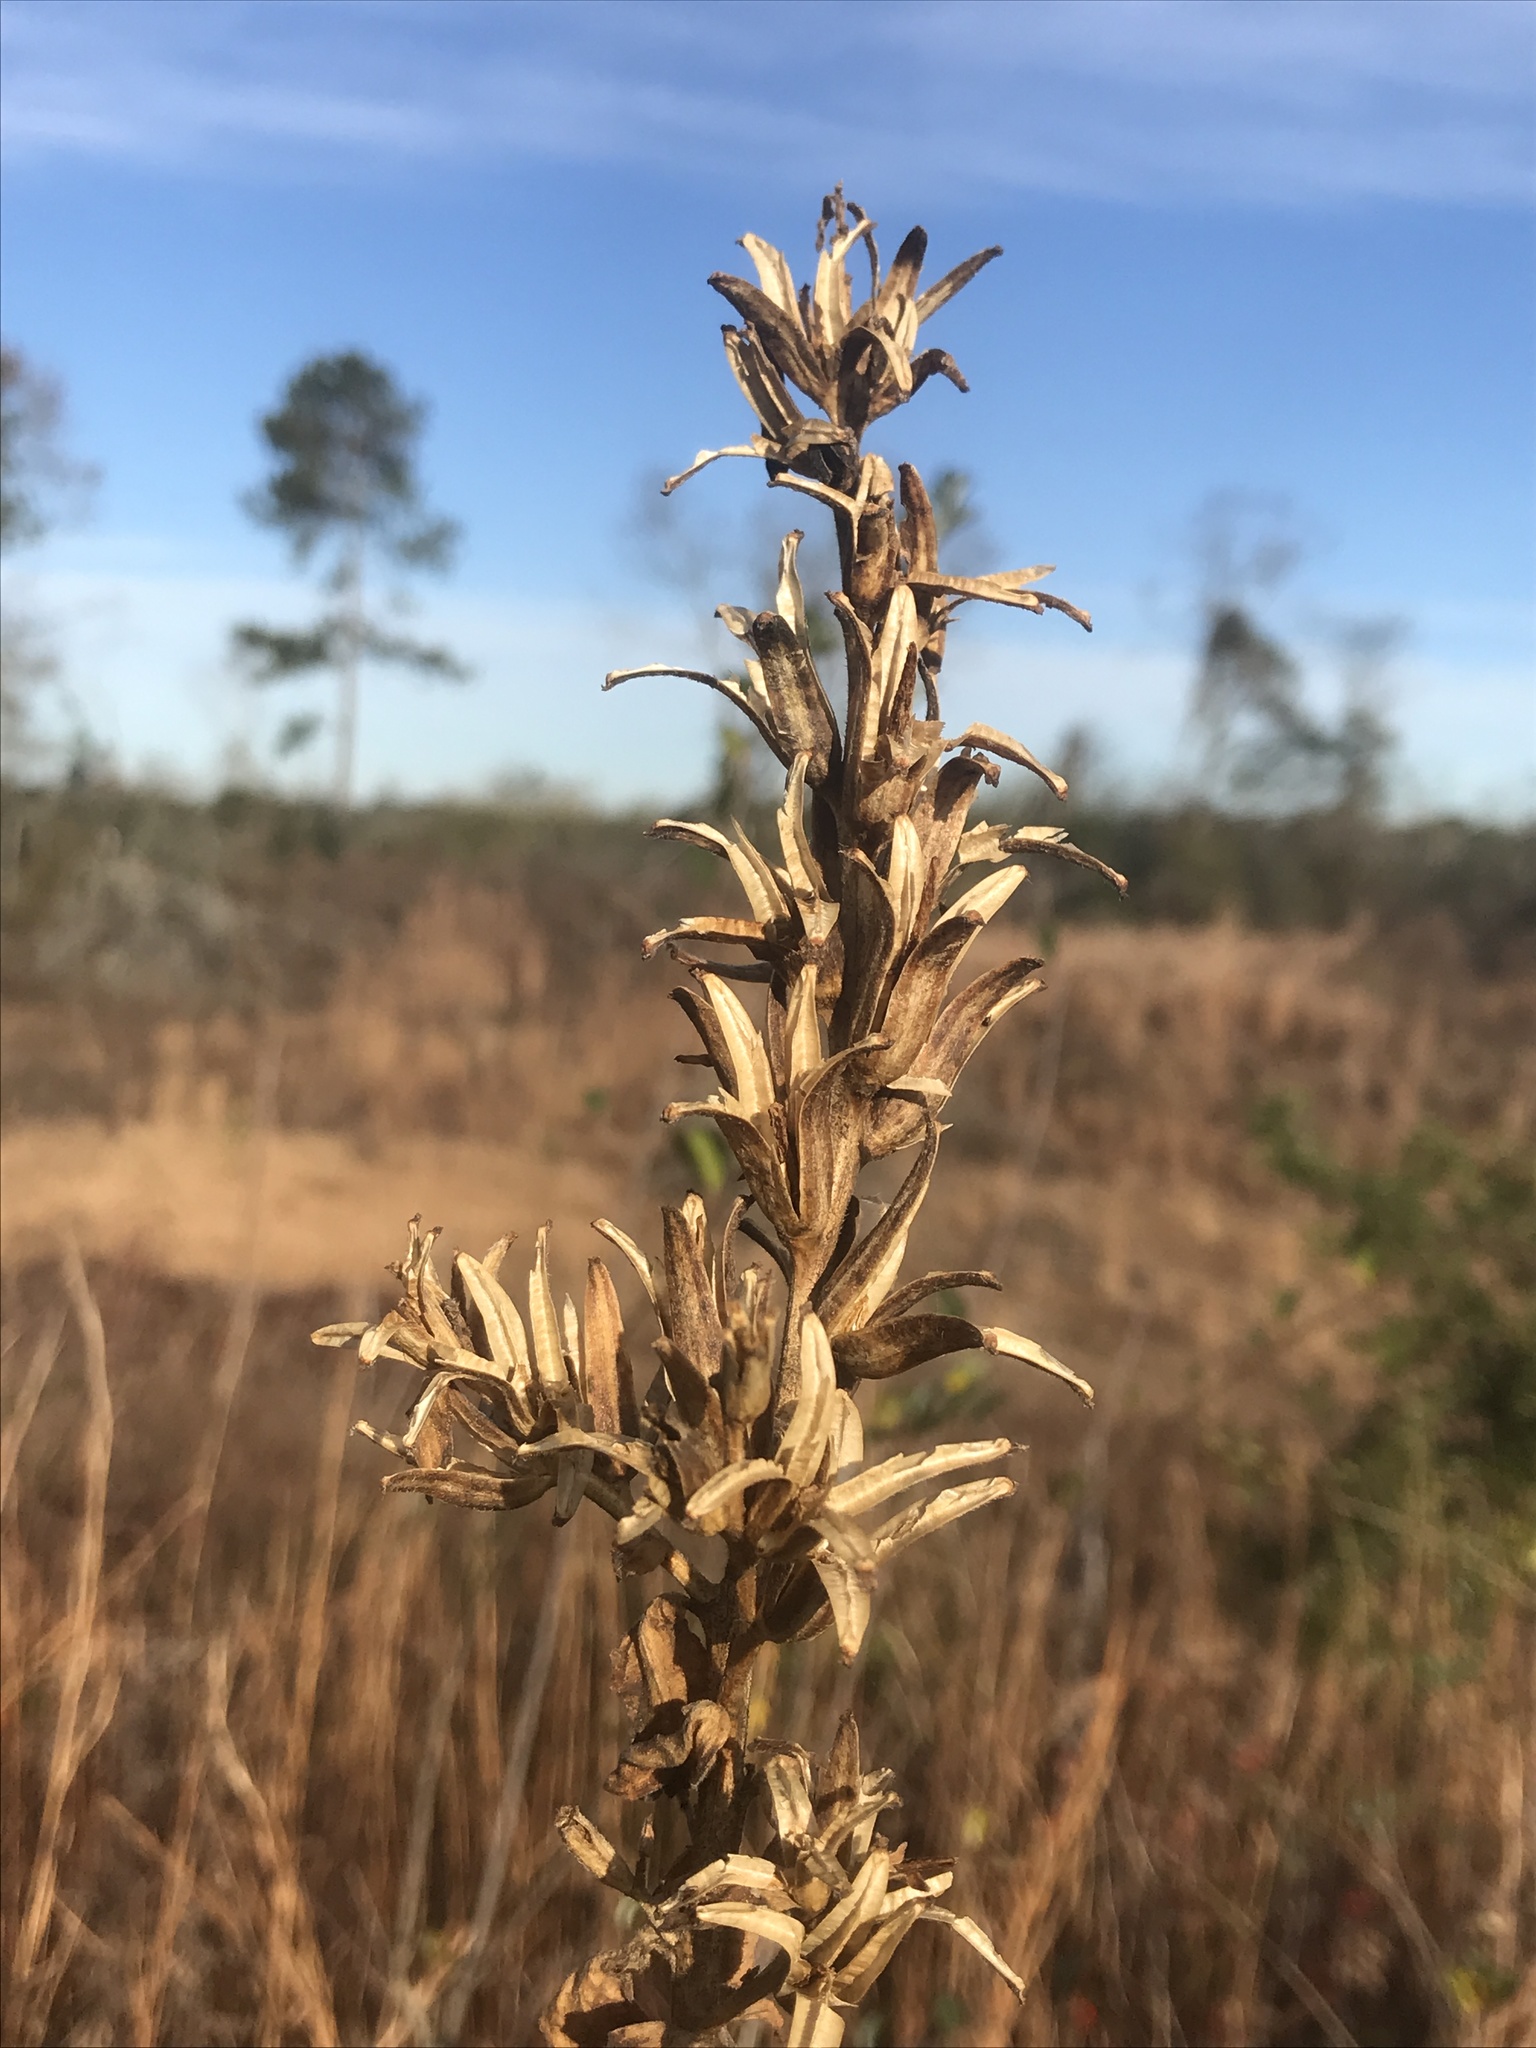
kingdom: Plantae
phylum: Tracheophyta
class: Magnoliopsida
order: Myrtales
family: Onagraceae
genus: Oenothera
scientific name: Oenothera biennis
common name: Common evening-primrose
